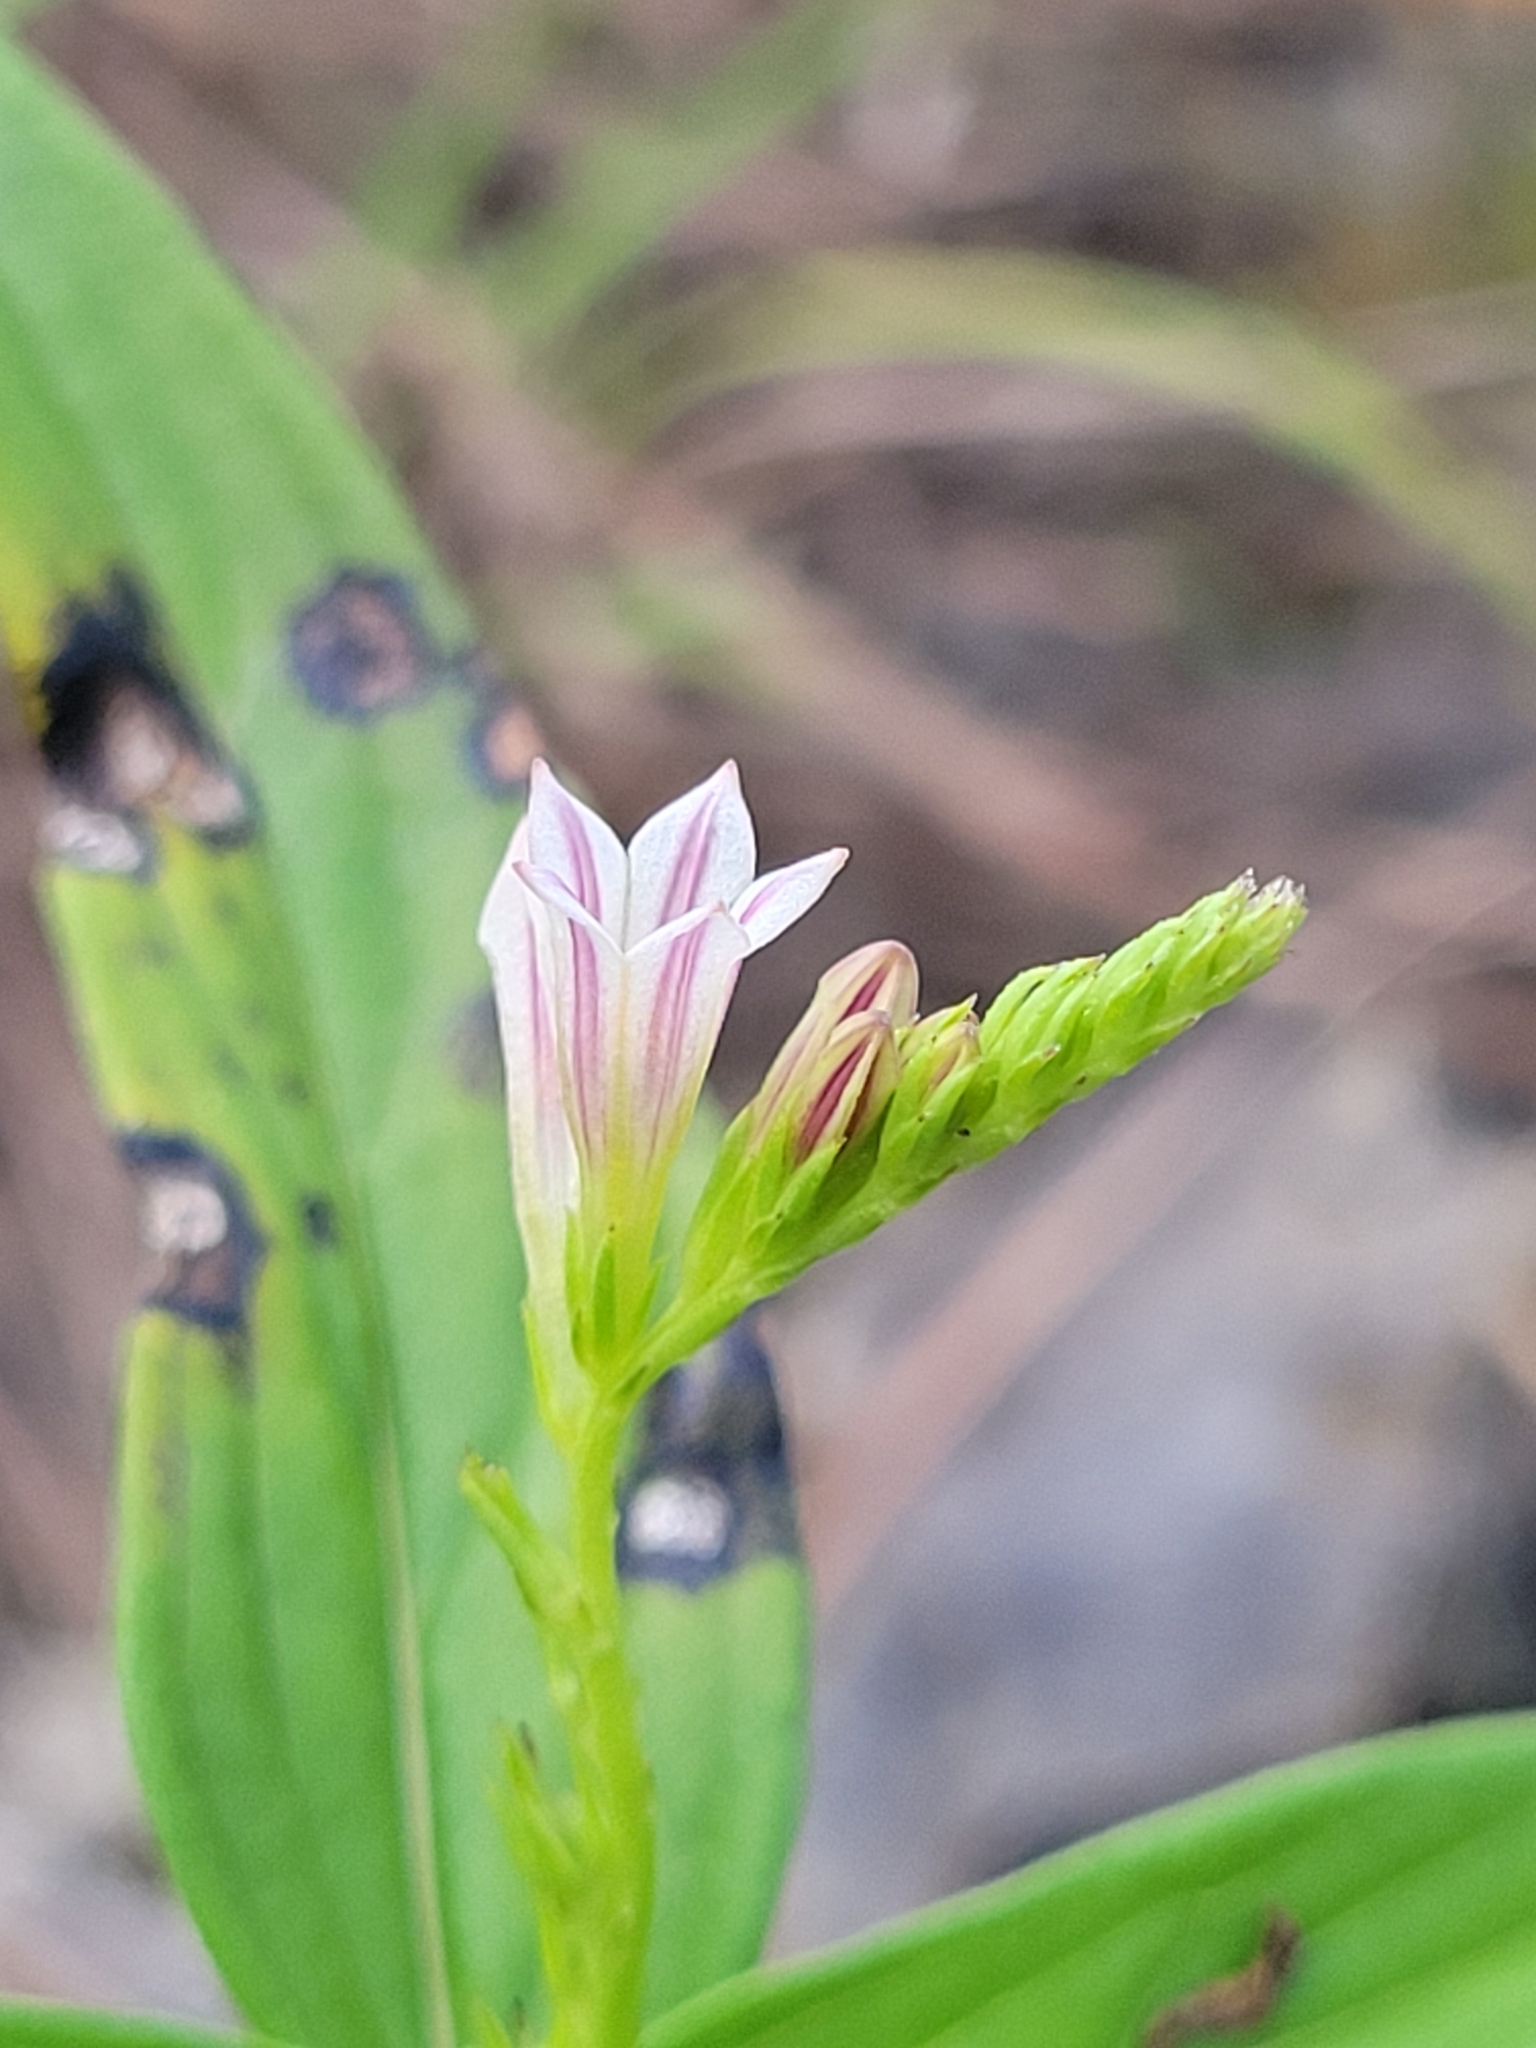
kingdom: Plantae
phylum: Tracheophyta
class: Magnoliopsida
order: Gentianales
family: Loganiaceae
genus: Spigelia
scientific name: Spigelia anthelmia
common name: West indian-pink
